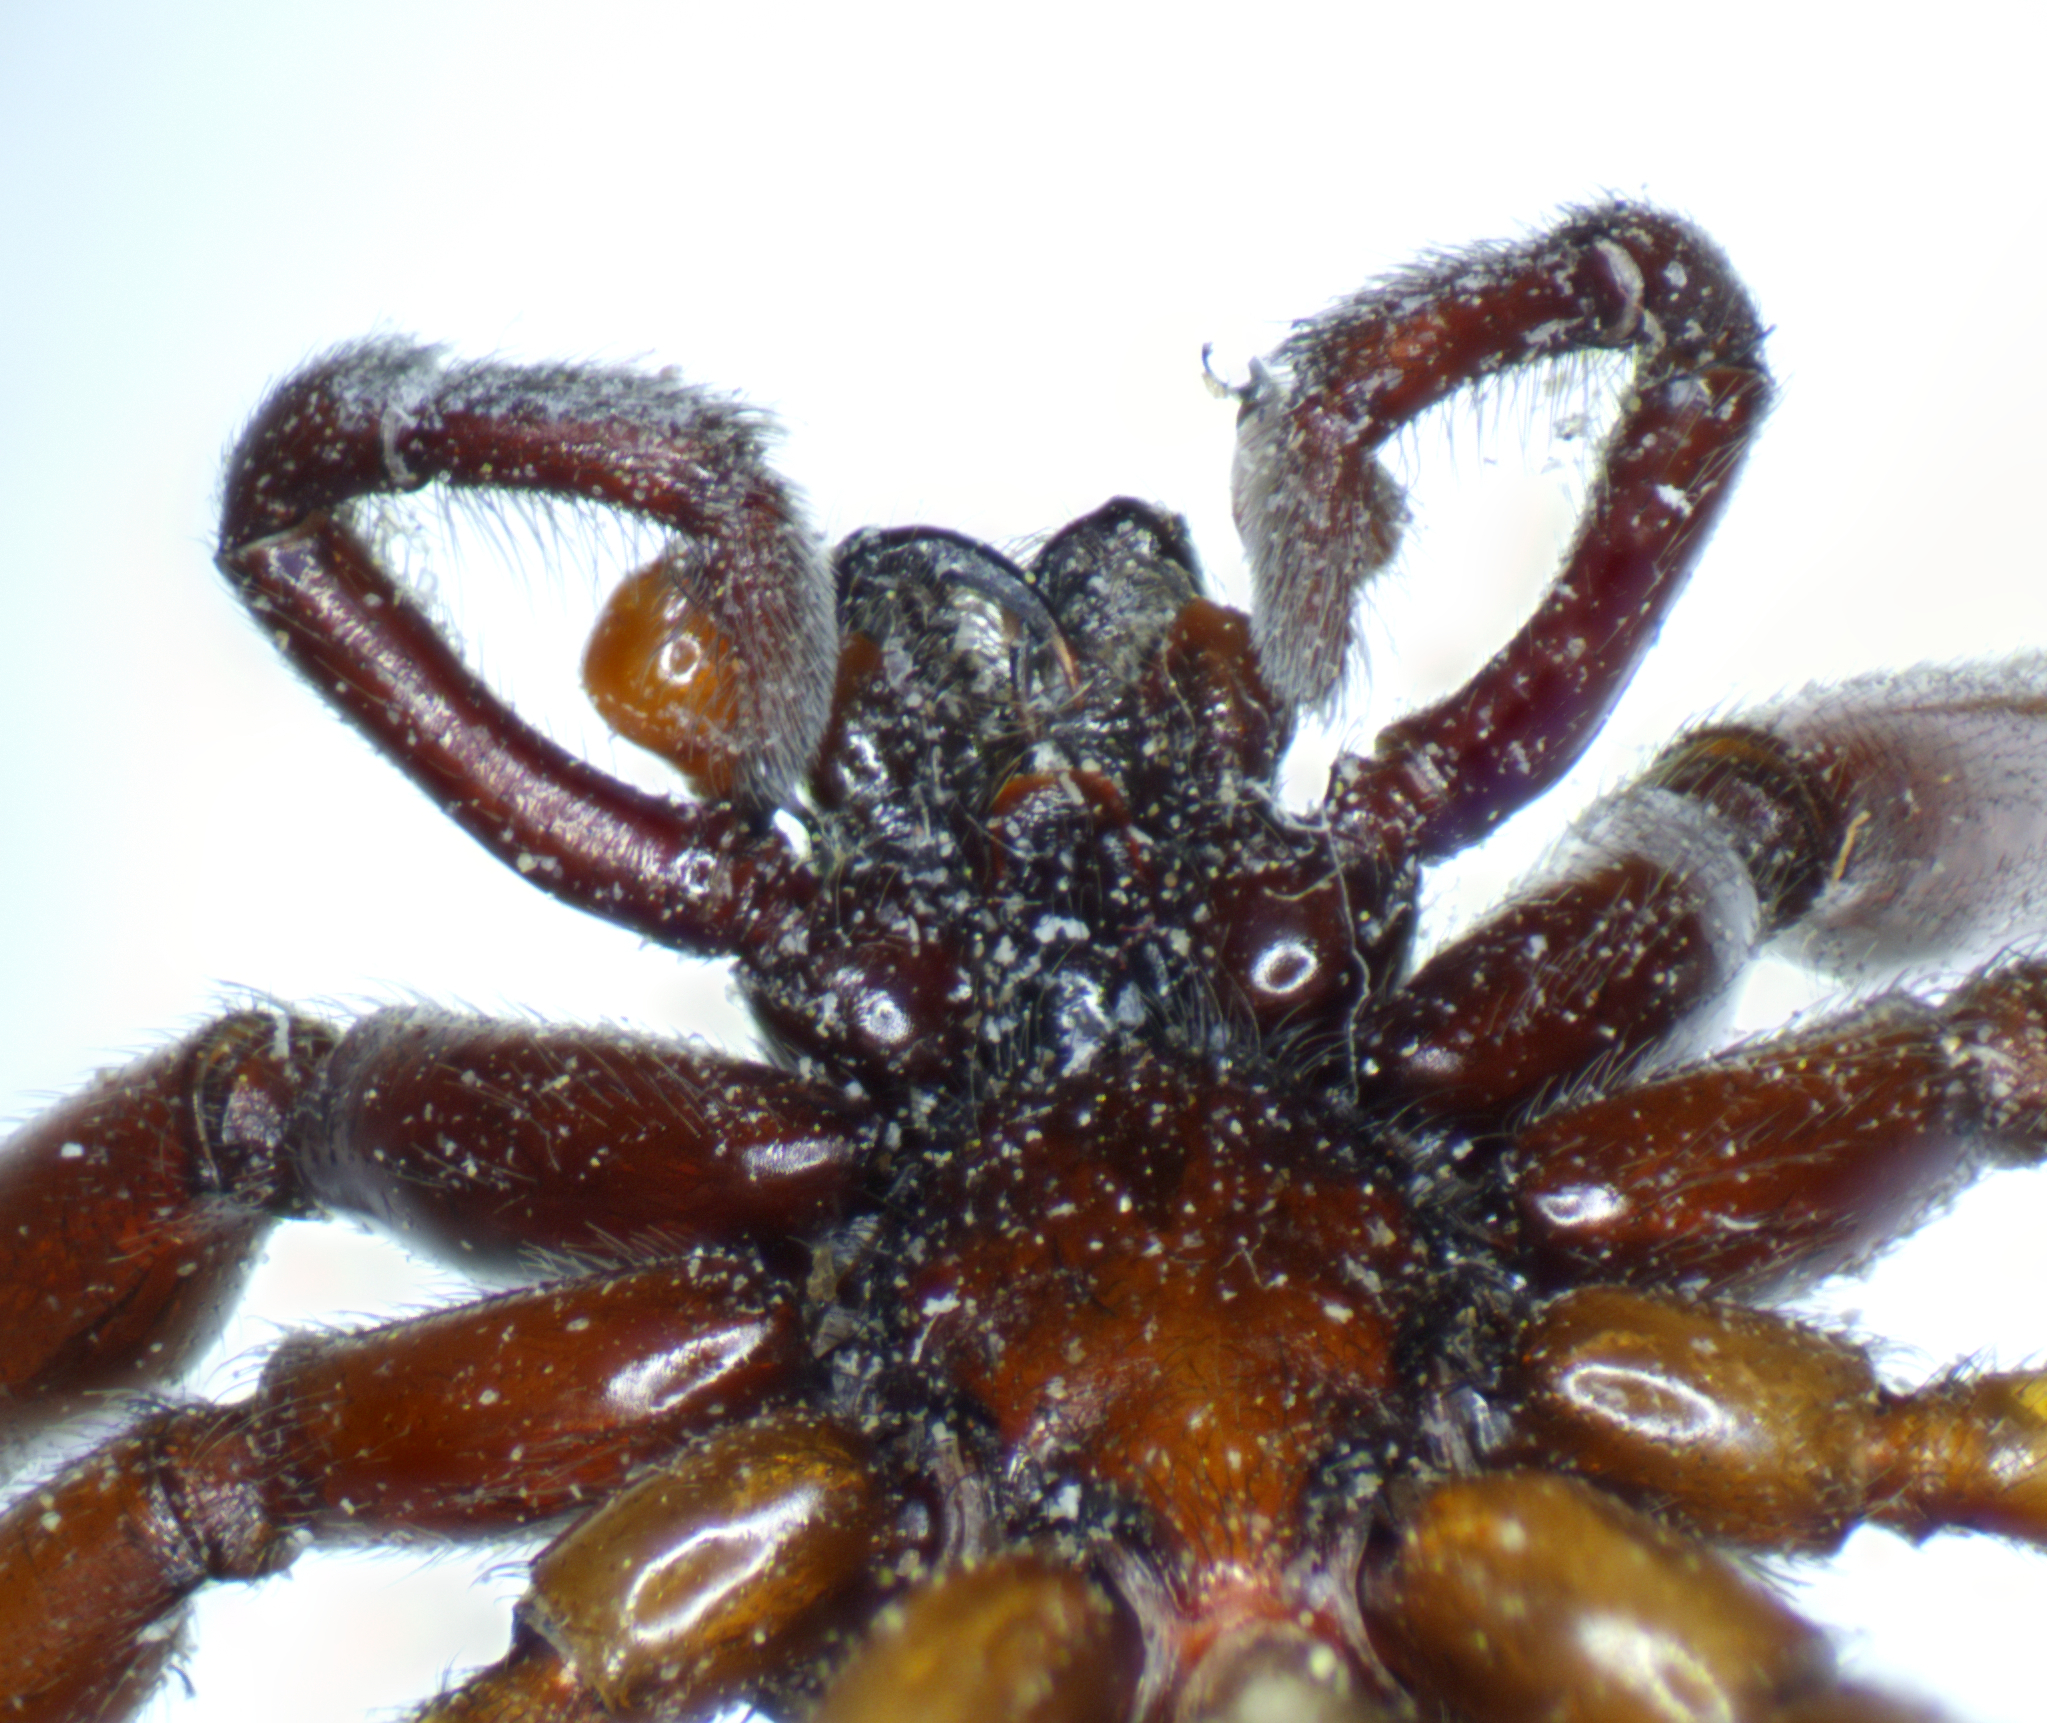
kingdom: Animalia
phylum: Arthropoda
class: Arachnida
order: Araneae
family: Dysderidae
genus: Harpactea
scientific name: Harpactea rubicunda
